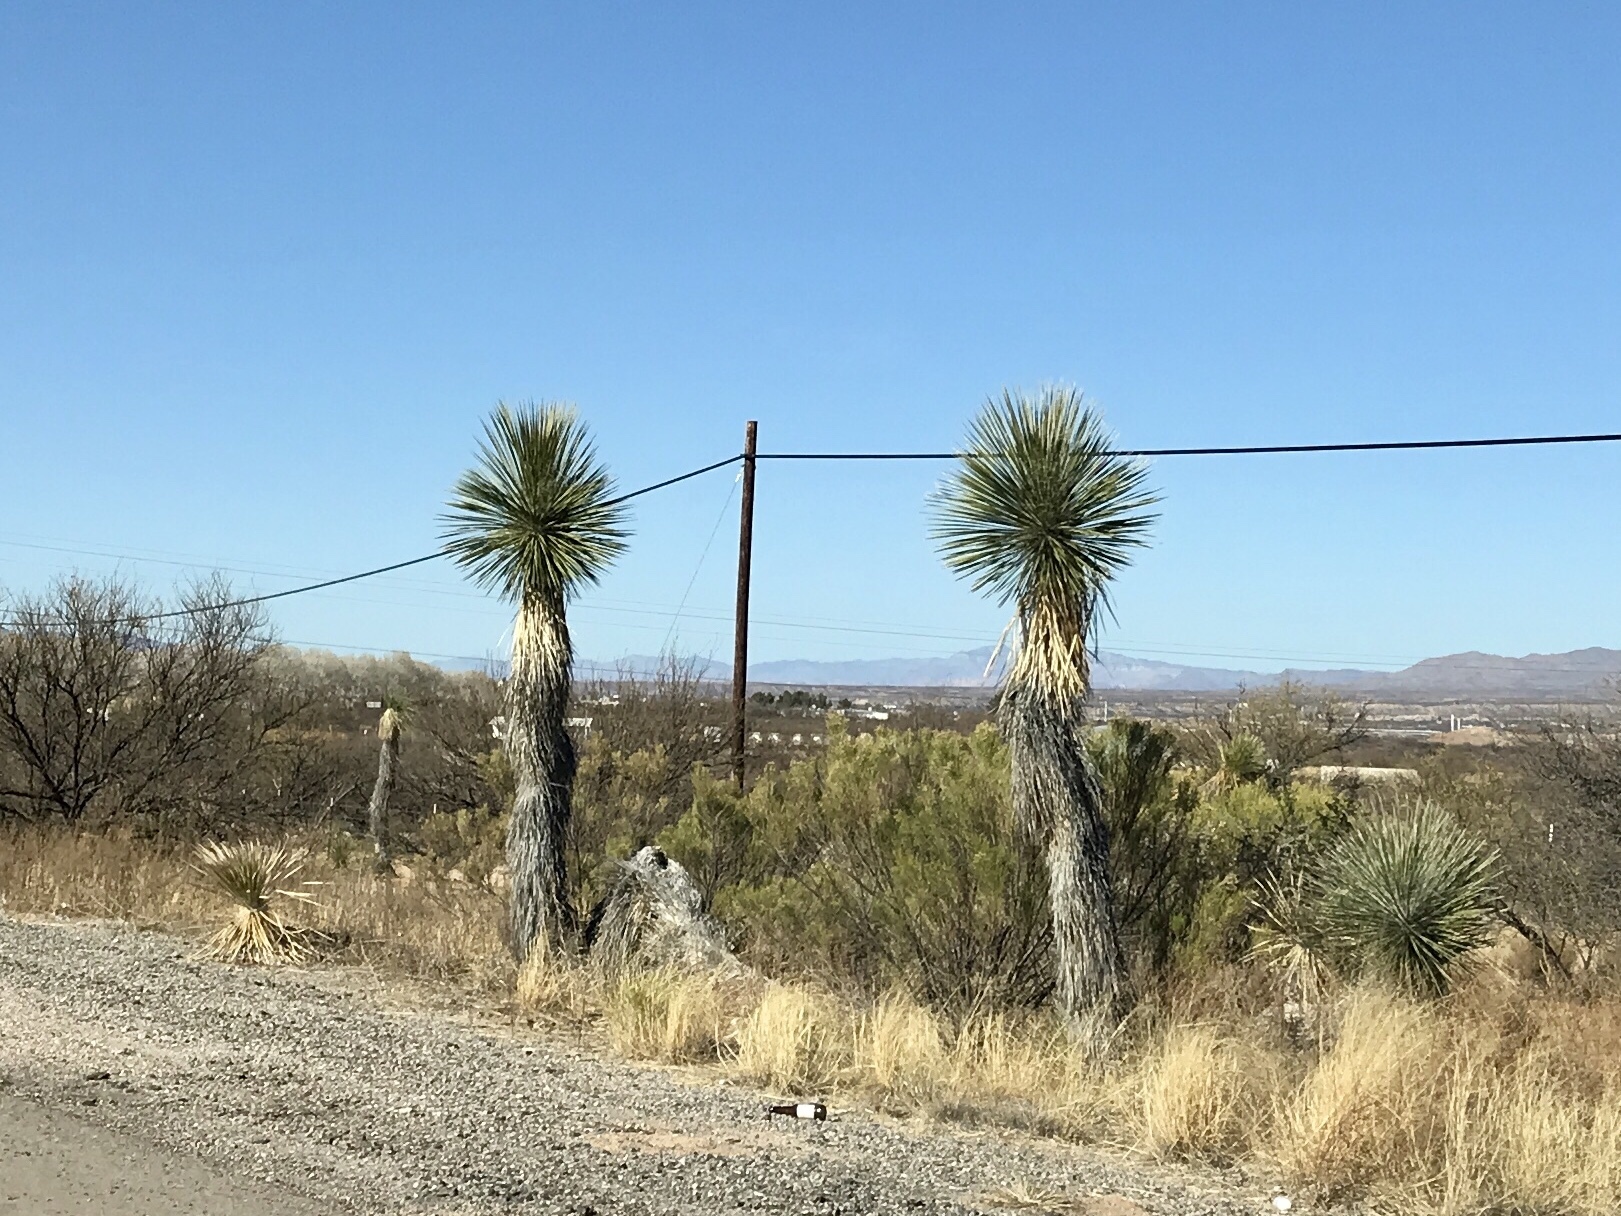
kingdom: Plantae
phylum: Tracheophyta
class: Liliopsida
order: Asparagales
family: Asparagaceae
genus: Yucca
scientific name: Yucca elata
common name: Palmella
